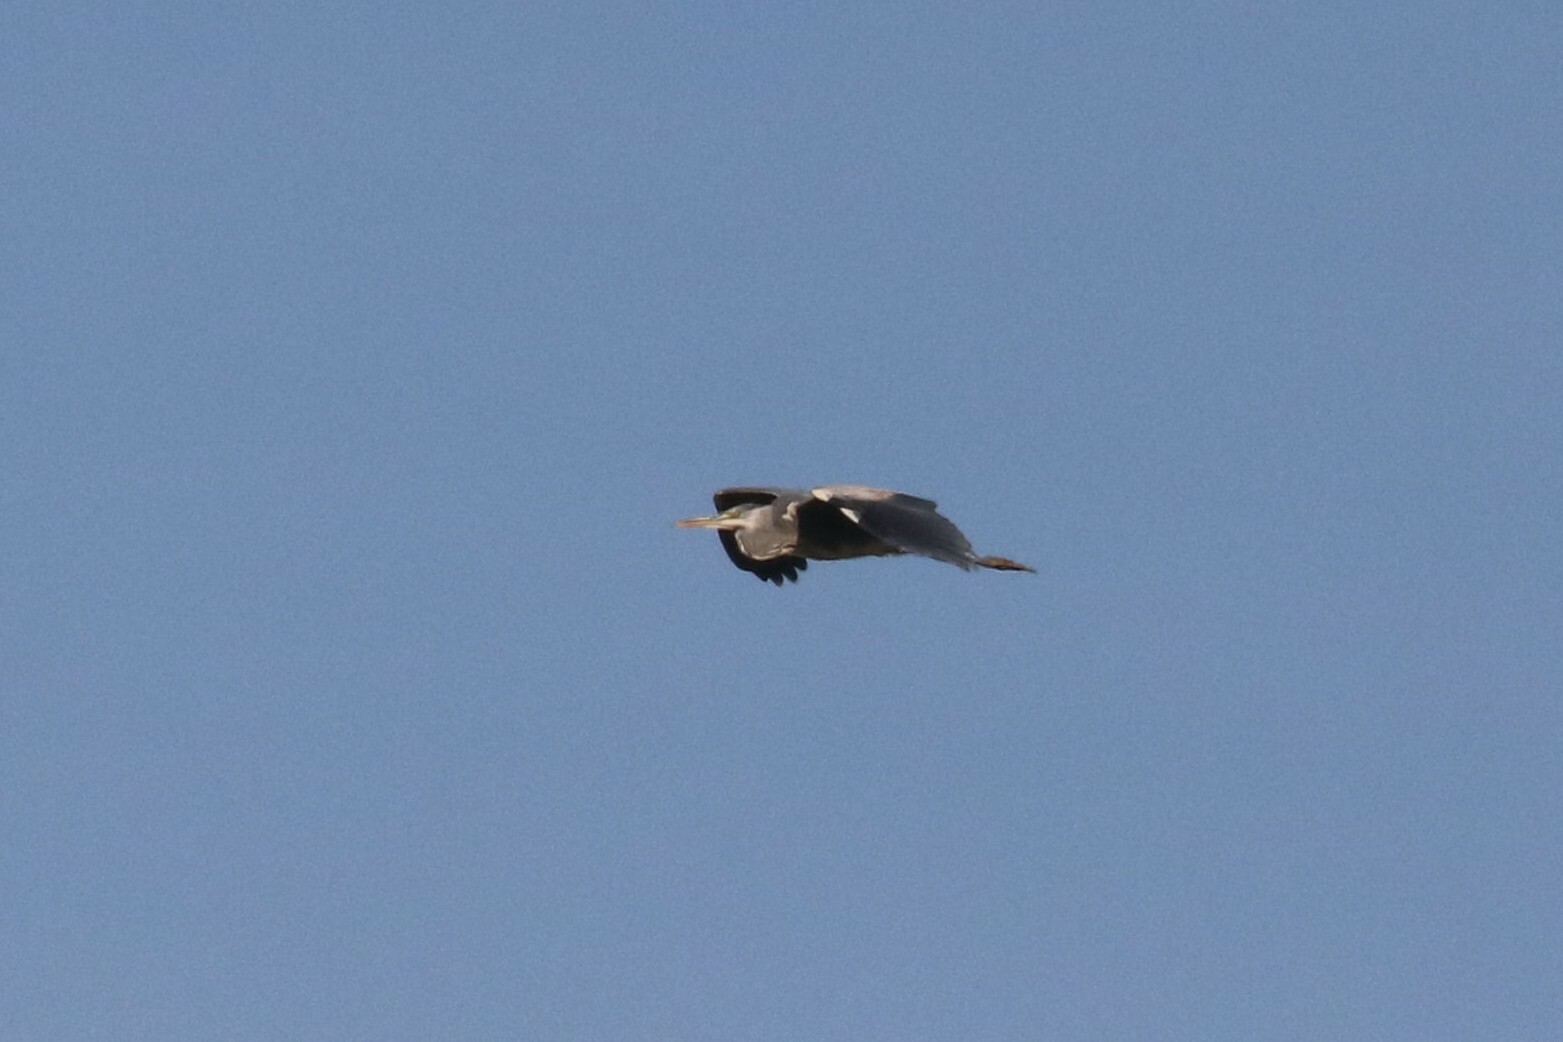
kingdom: Animalia
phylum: Chordata
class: Aves
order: Pelecaniformes
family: Ardeidae
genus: Ardea
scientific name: Ardea cinerea
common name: Grey heron
